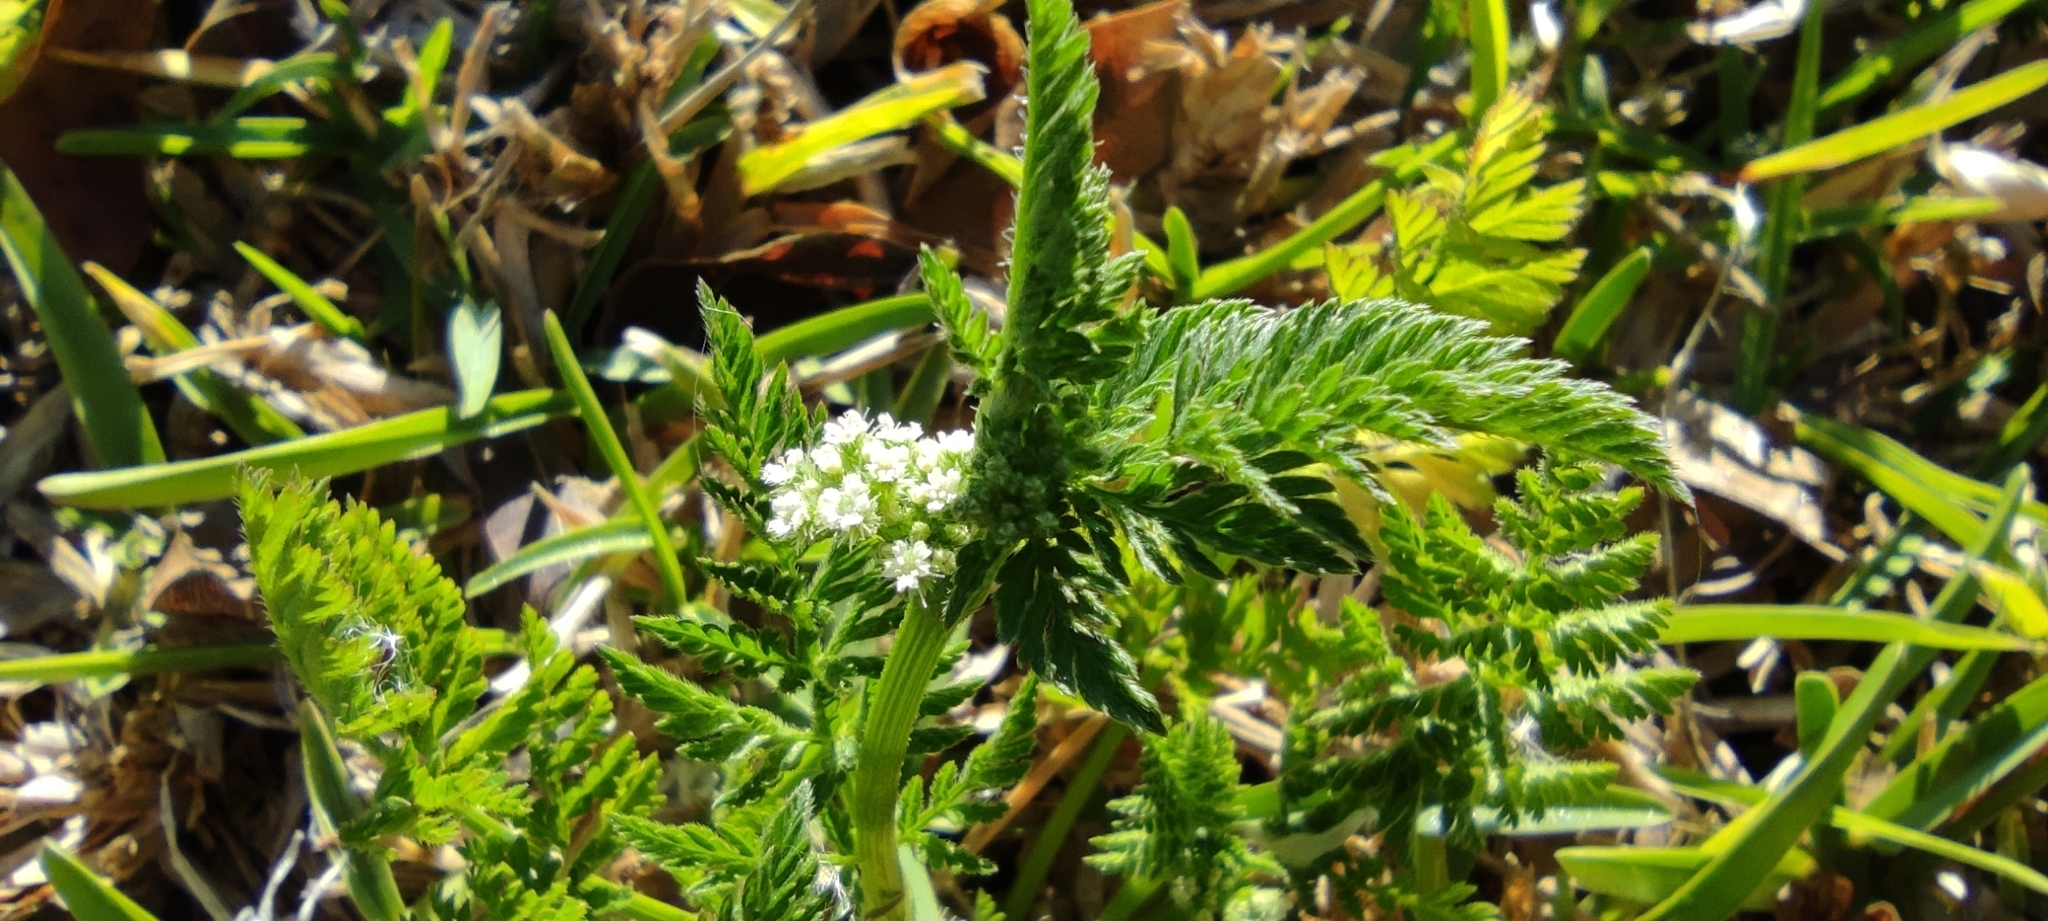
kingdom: Plantae
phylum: Tracheophyta
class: Magnoliopsida
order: Apiales
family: Apiaceae
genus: Torilis
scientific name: Torilis nodosa
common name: Knotted hedge-parsley
